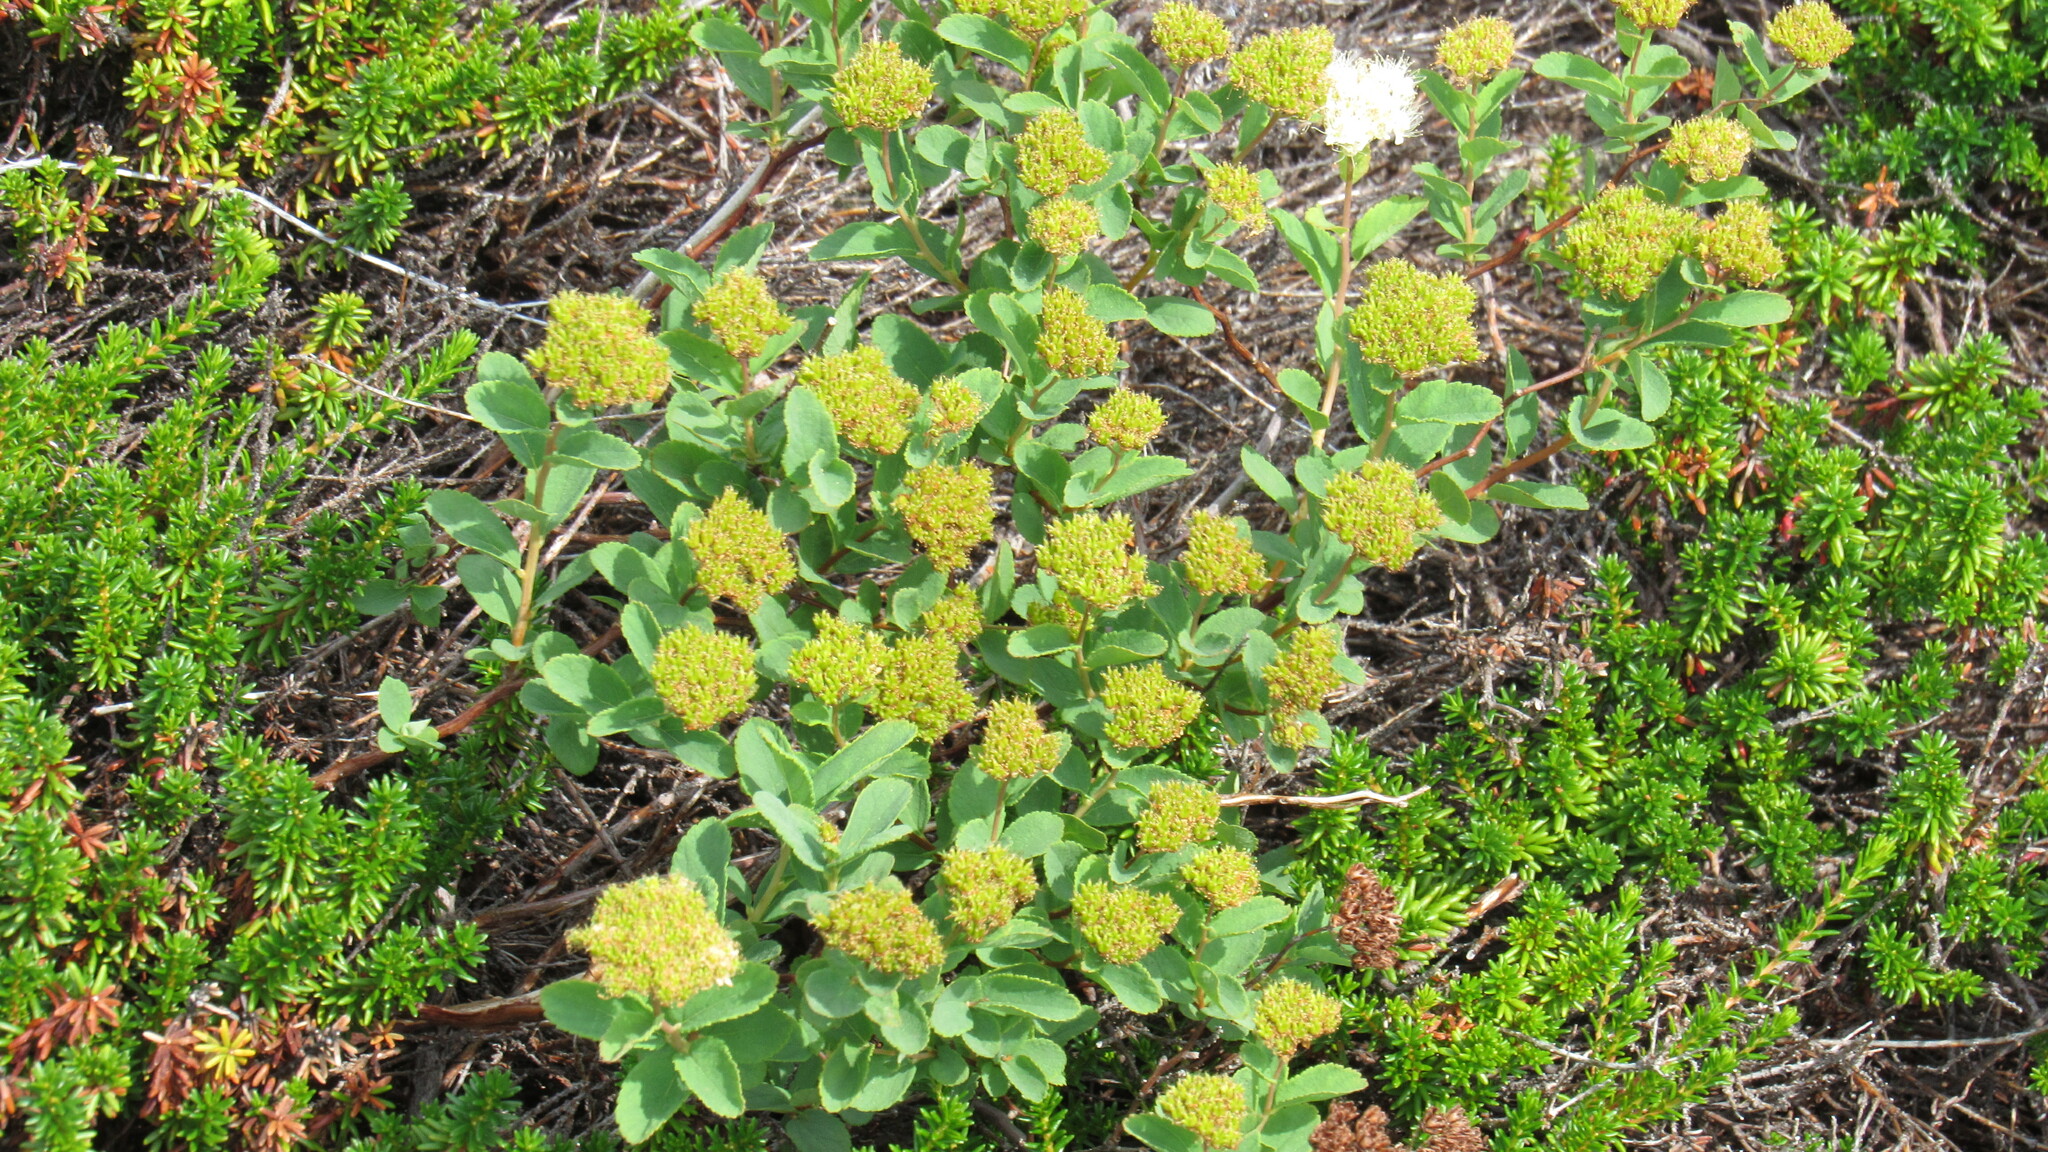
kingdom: Plantae
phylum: Tracheophyta
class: Magnoliopsida
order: Rosales
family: Rosaceae
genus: Spiraea
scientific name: Spiraea betulifolia
